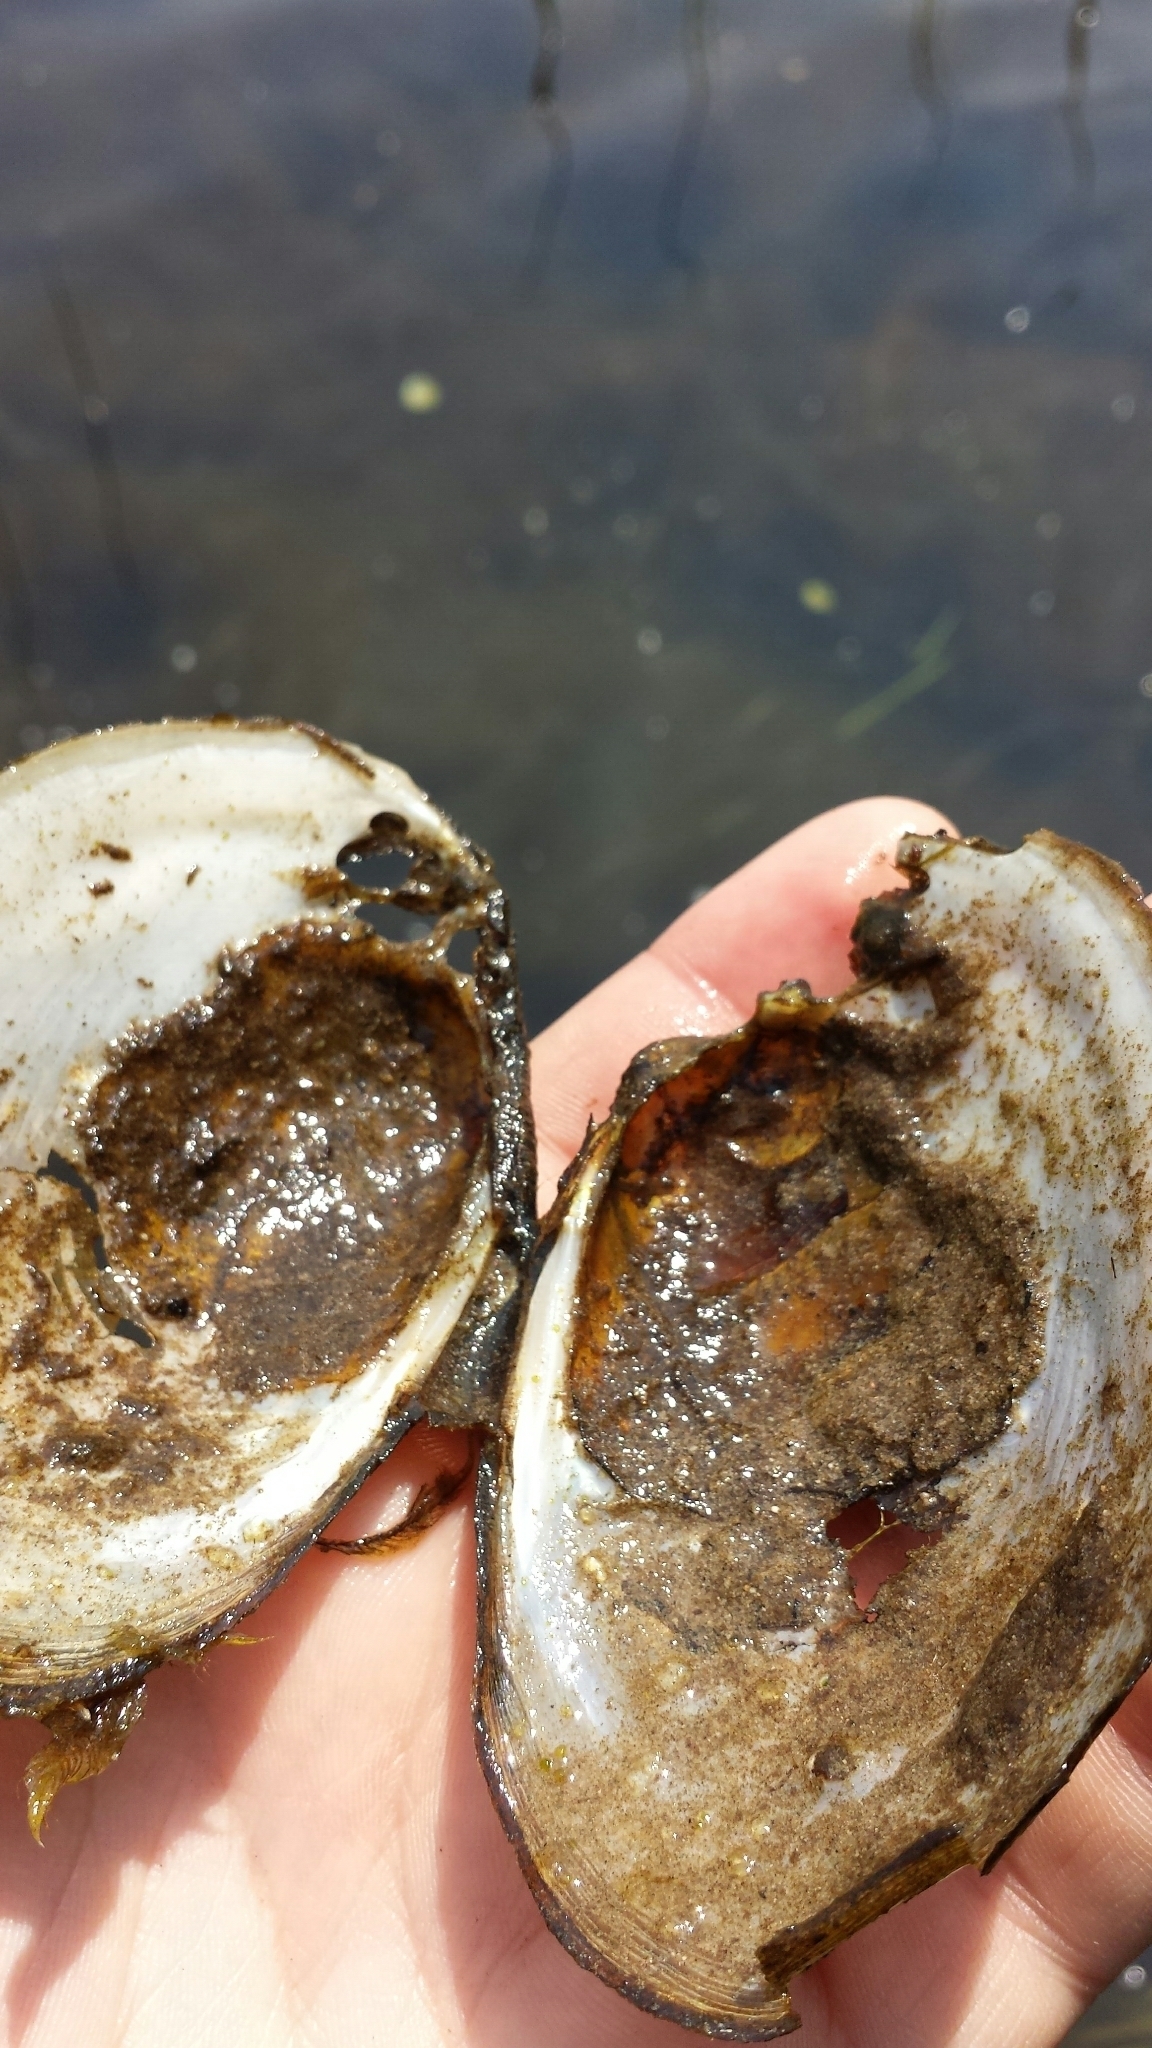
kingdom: Animalia
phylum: Mollusca
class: Bivalvia
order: Unionida
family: Unionidae
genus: Lampsilis
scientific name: Lampsilis cariosa
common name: Yellow lampmussel
